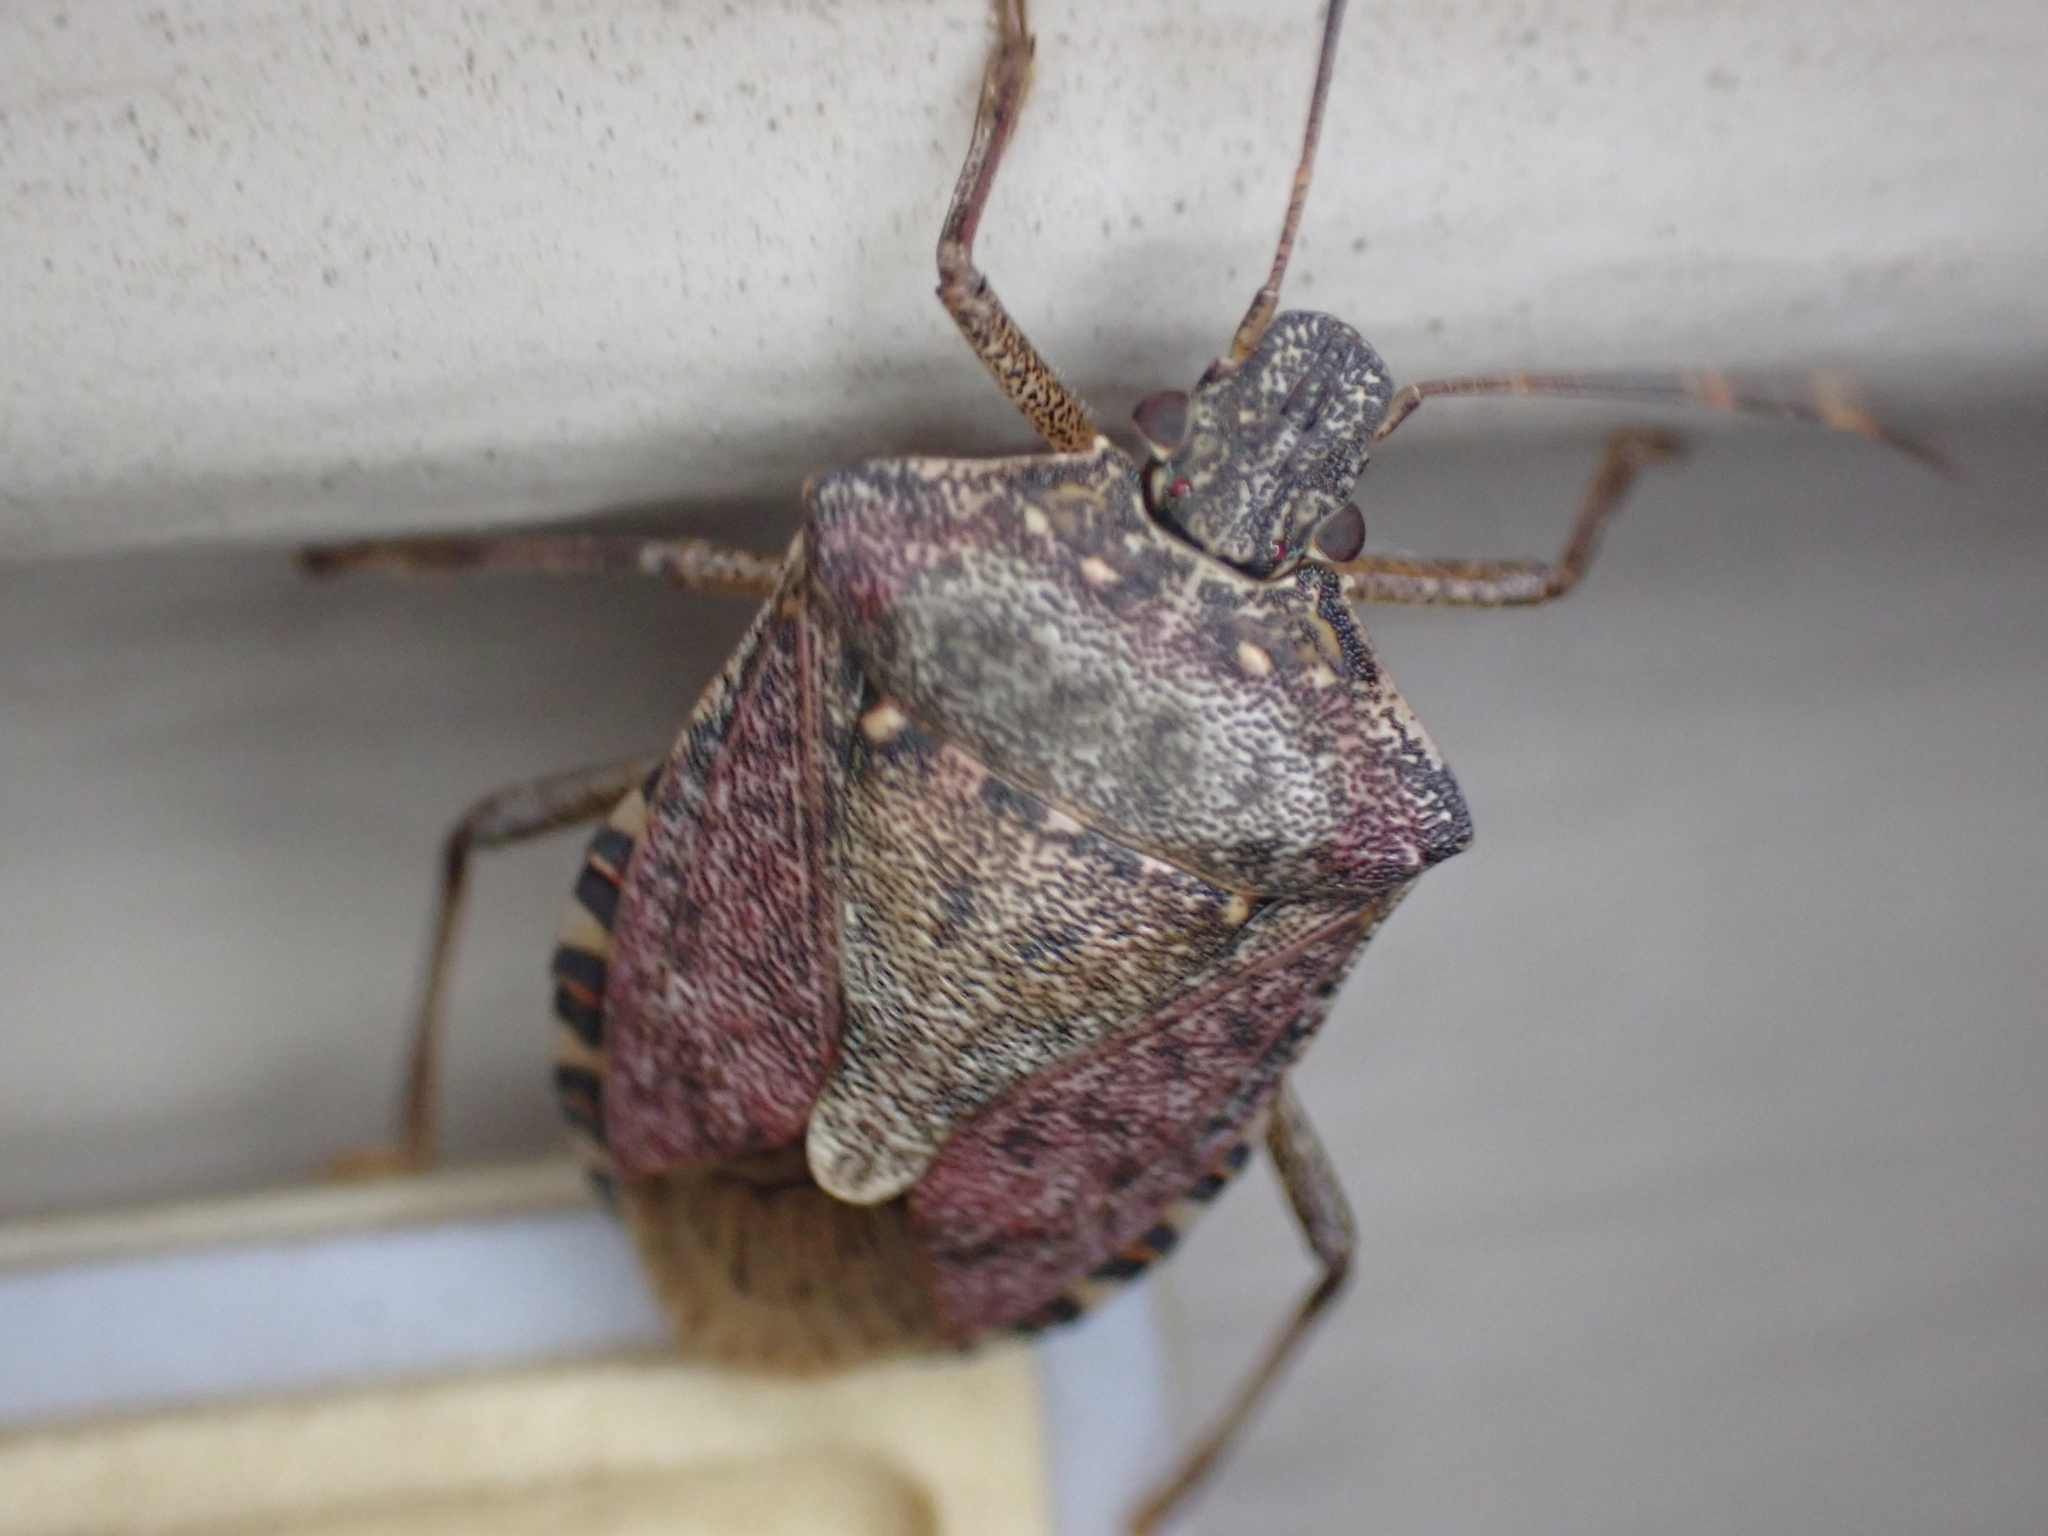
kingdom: Animalia
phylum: Arthropoda
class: Insecta
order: Hemiptera
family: Pentatomidae
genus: Halyomorpha
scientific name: Halyomorpha halys
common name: Brown marmorated stink bug
